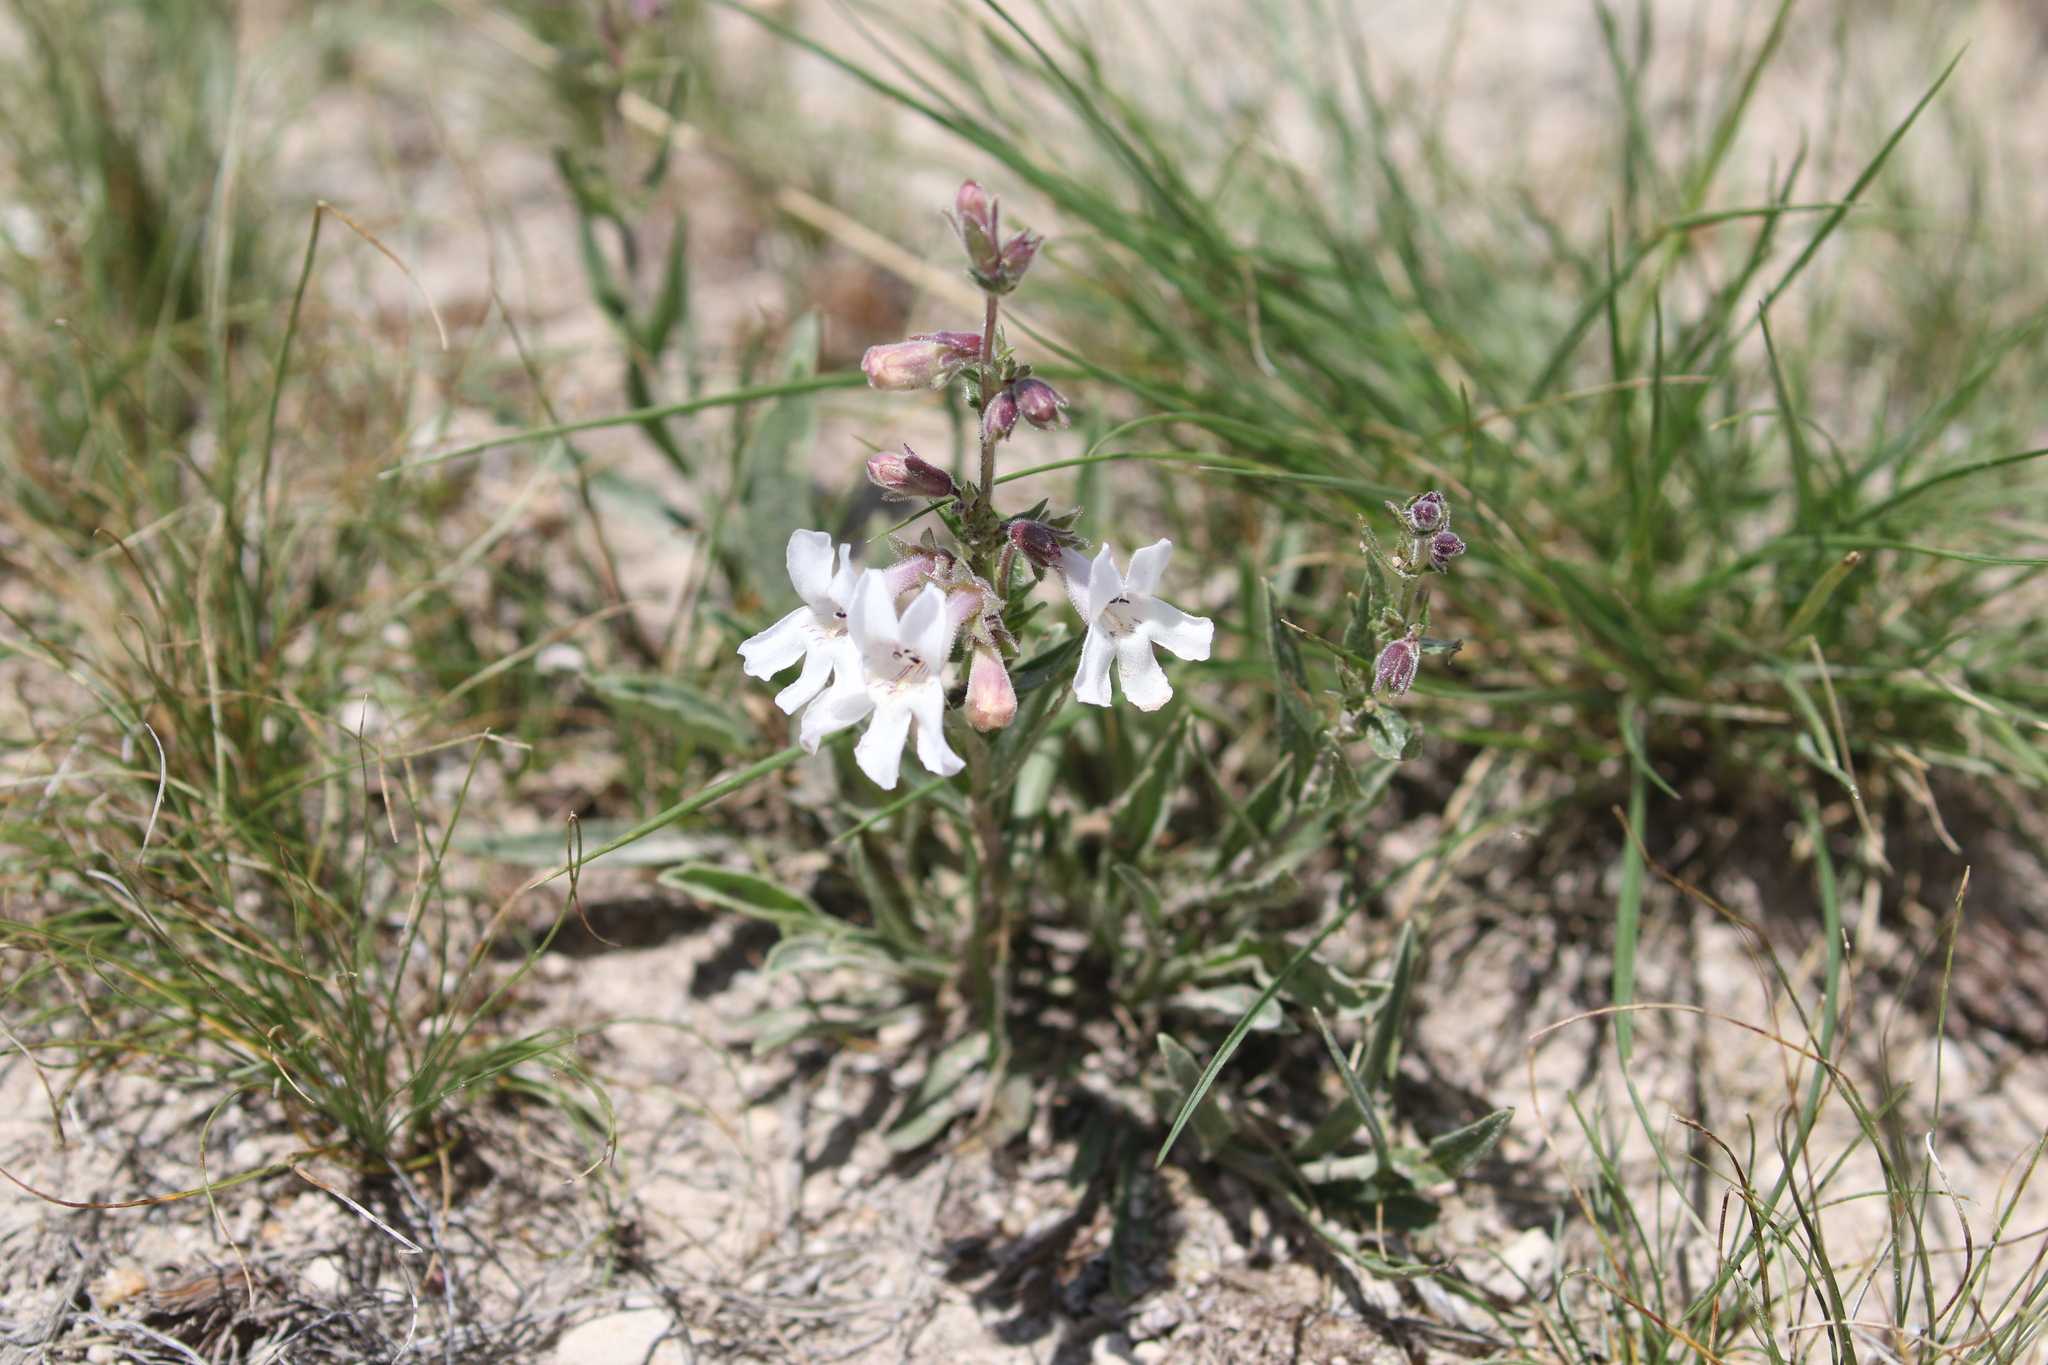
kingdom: Plantae
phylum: Tracheophyta
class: Magnoliopsida
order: Lamiales
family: Plantaginaceae
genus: Penstemon
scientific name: Penstemon albidus
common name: White beardtongue
